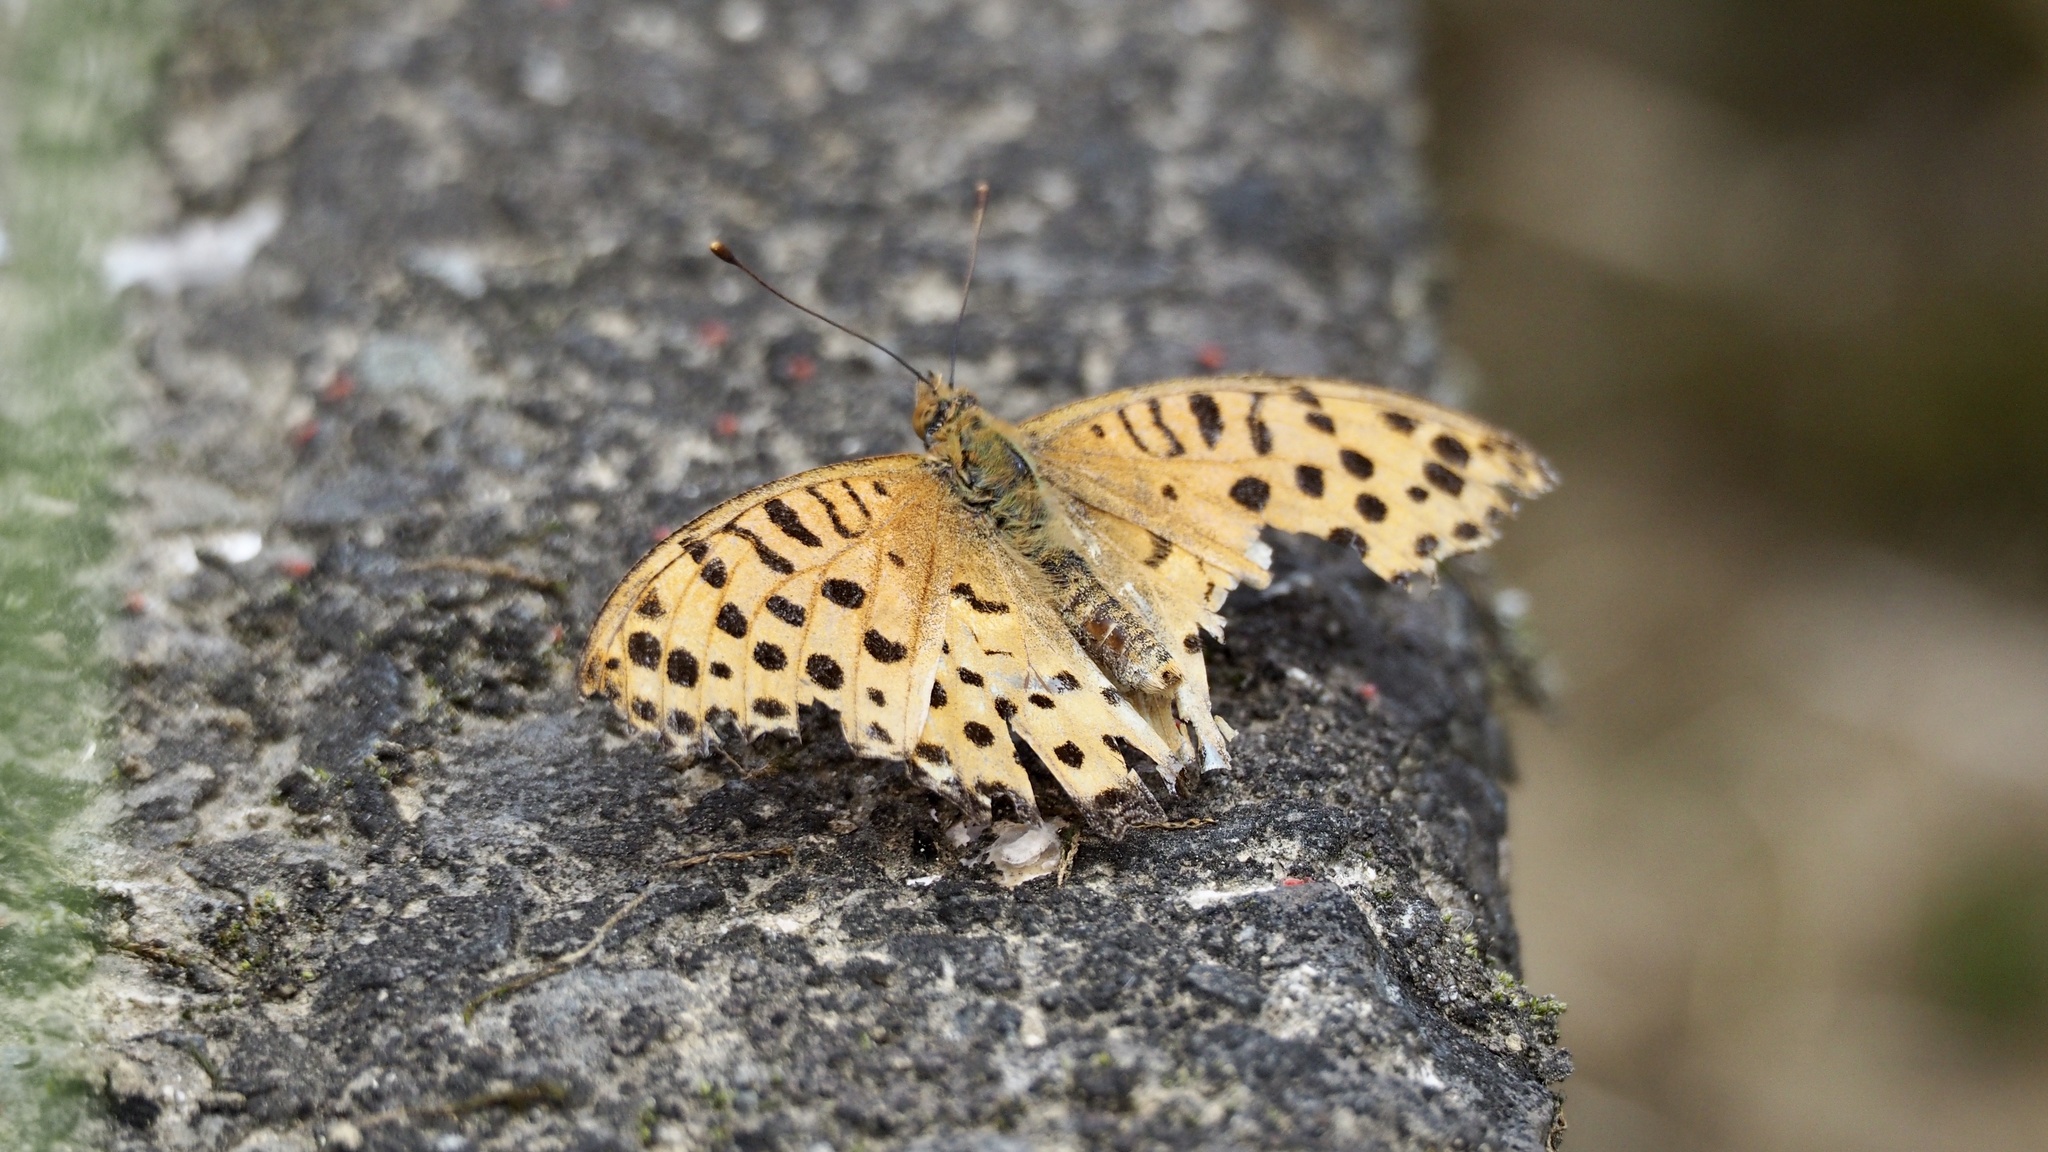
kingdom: Animalia
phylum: Arthropoda
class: Insecta
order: Lepidoptera
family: Nymphalidae
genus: Argynnis
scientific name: Argynnis hyperbius
